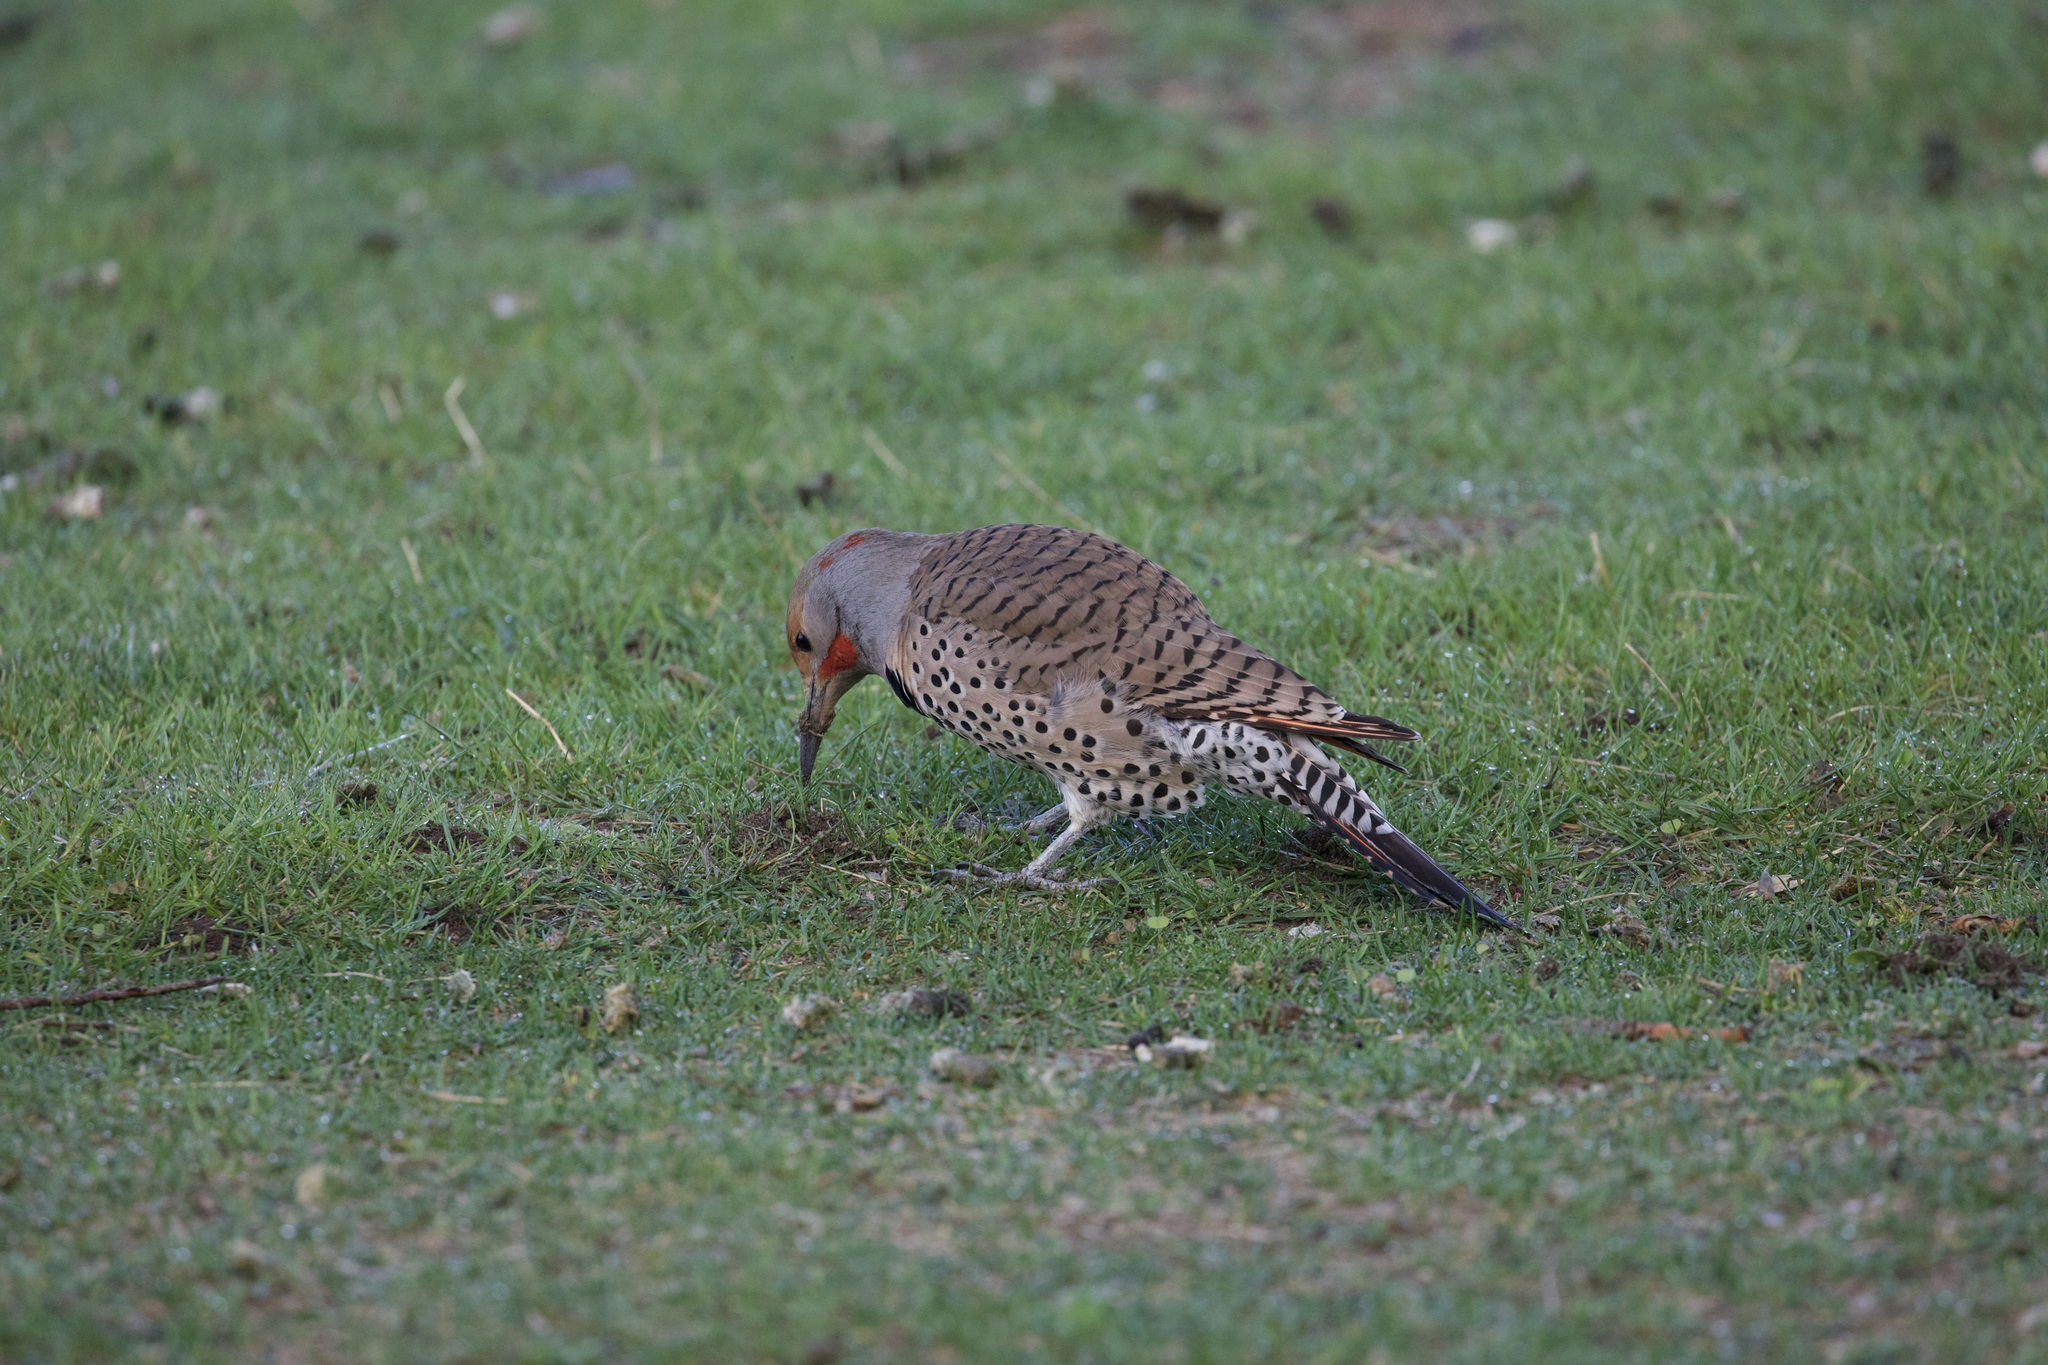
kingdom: Animalia
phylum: Chordata
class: Aves
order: Piciformes
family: Picidae
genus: Colaptes
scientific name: Colaptes auratus
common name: Northern flicker
